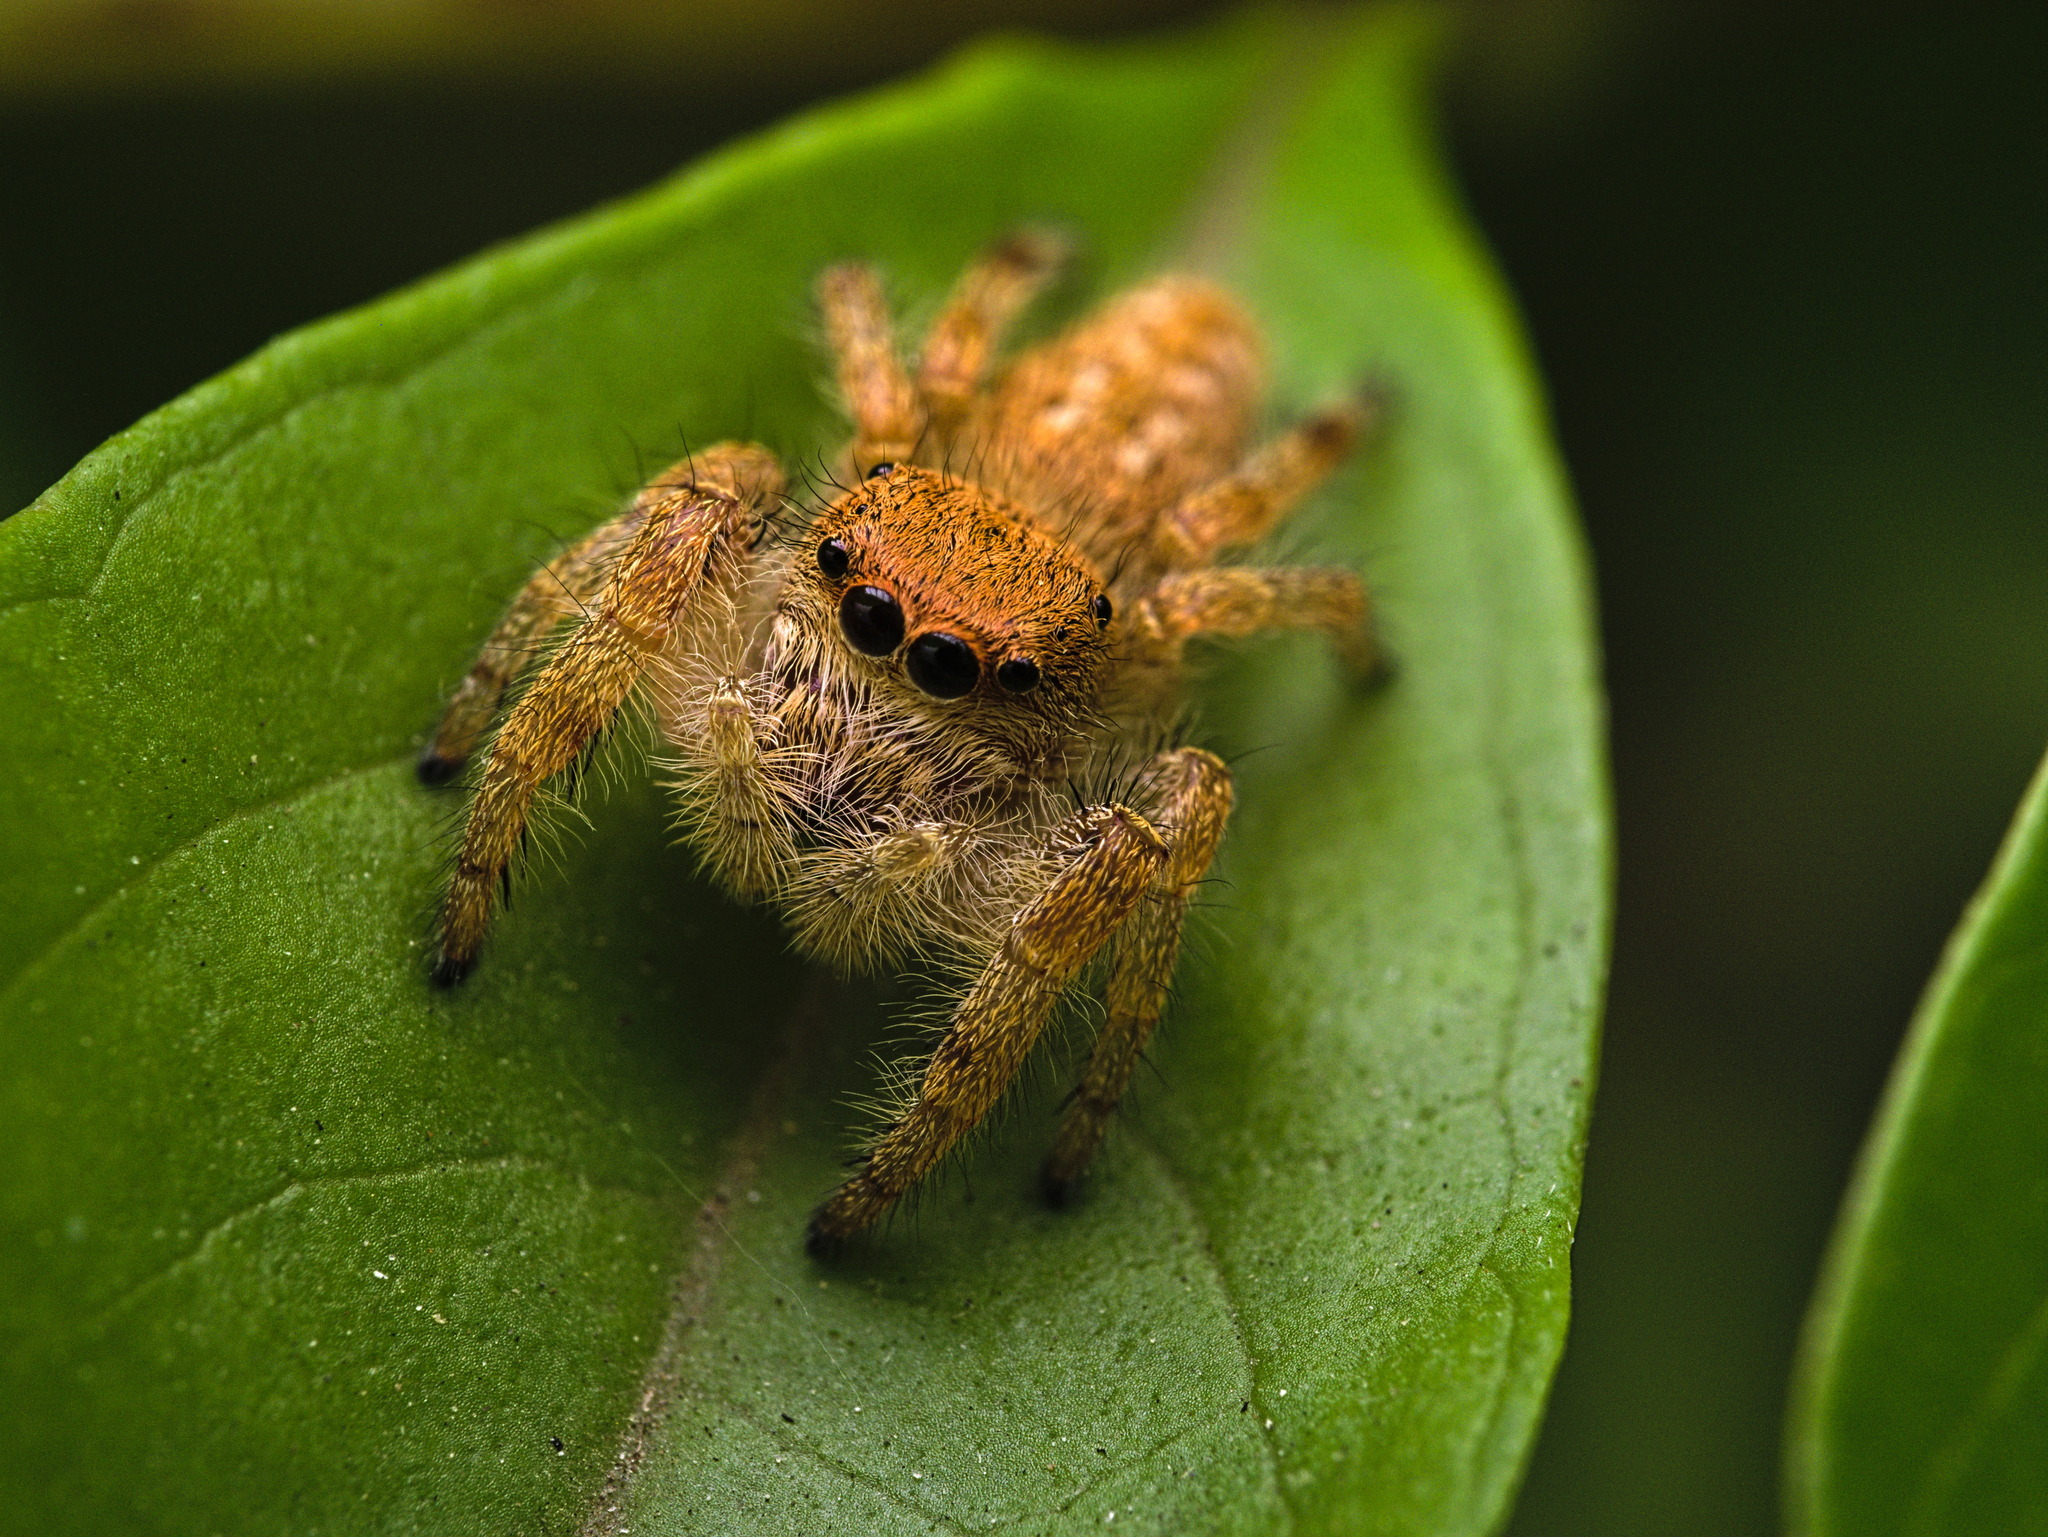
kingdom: Animalia
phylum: Arthropoda
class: Arachnida
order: Araneae
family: Salticidae
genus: Paraphidippus
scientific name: Paraphidippus fartilis
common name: Jumping spiders
